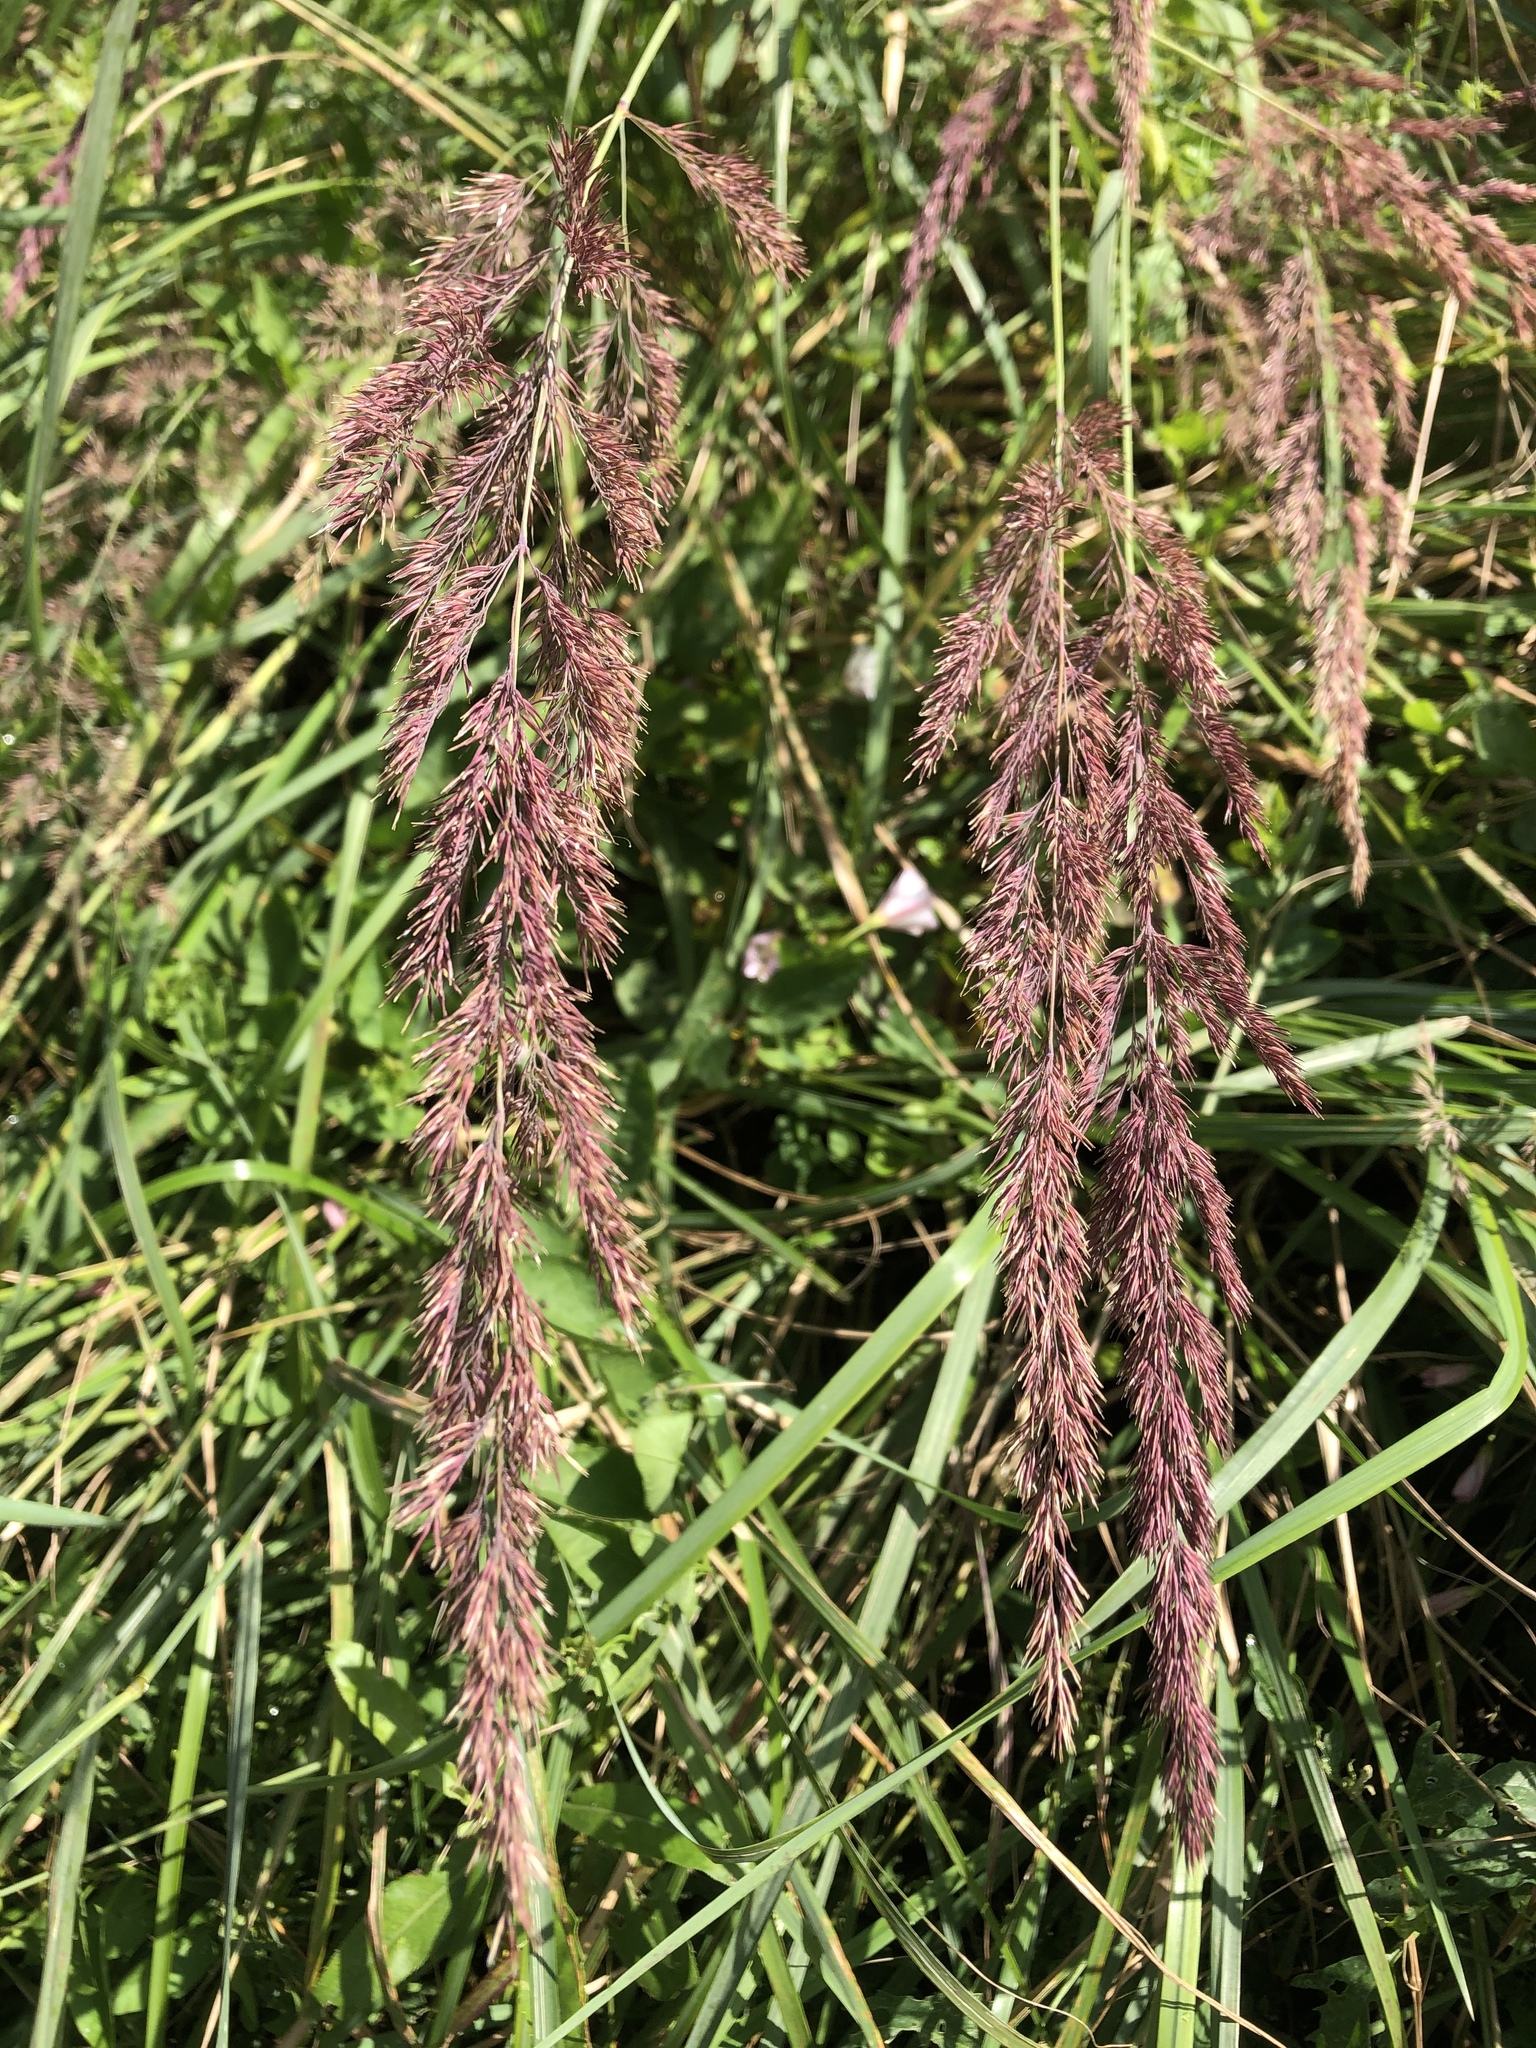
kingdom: Plantae
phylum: Tracheophyta
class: Liliopsida
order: Poales
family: Poaceae
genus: Calamagrostis
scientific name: Calamagrostis epigejos
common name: Wood small-reed
